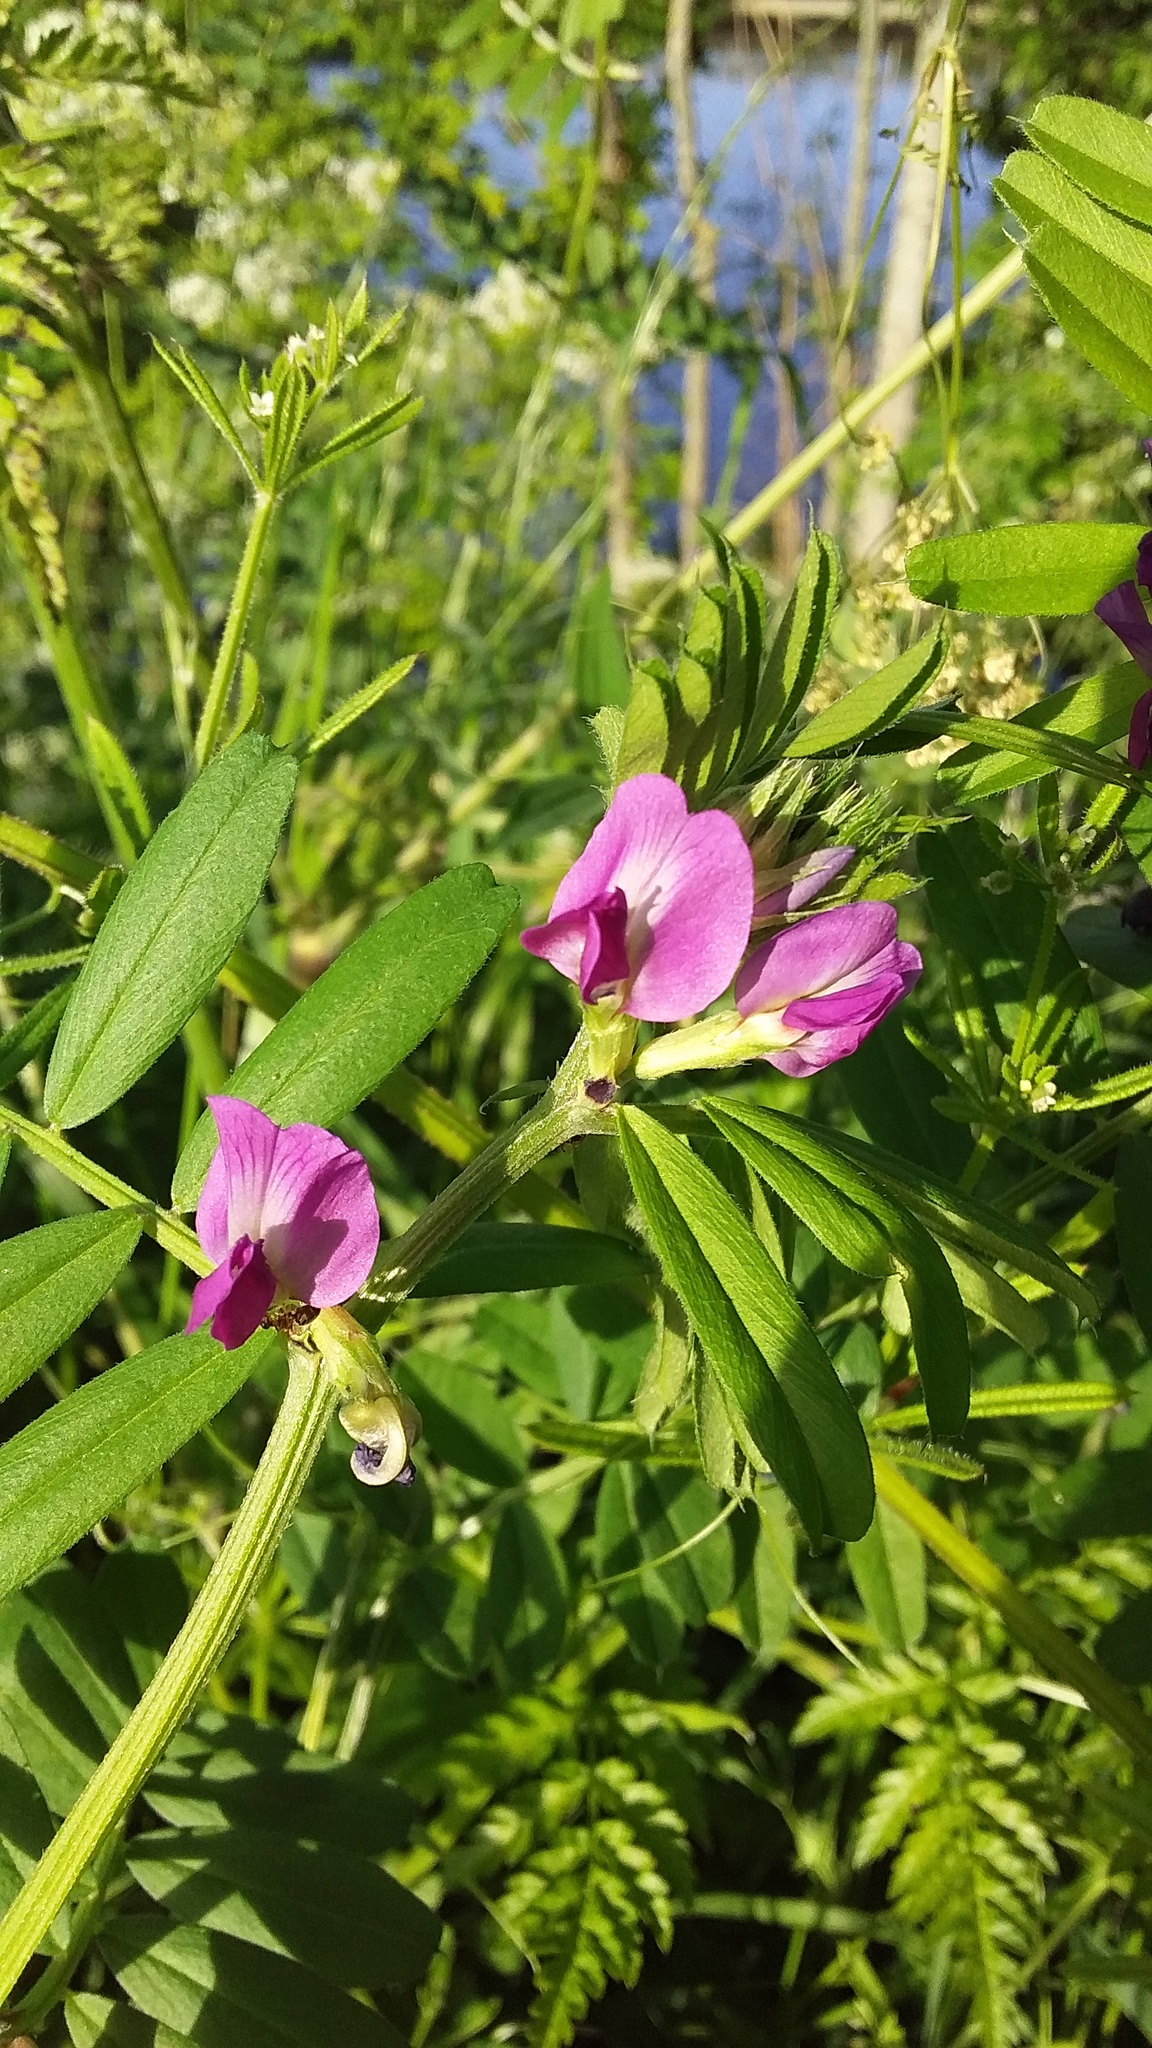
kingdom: Plantae
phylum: Tracheophyta
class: Magnoliopsida
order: Fabales
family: Fabaceae
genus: Vicia
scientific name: Vicia sativa
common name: Garden vetch
